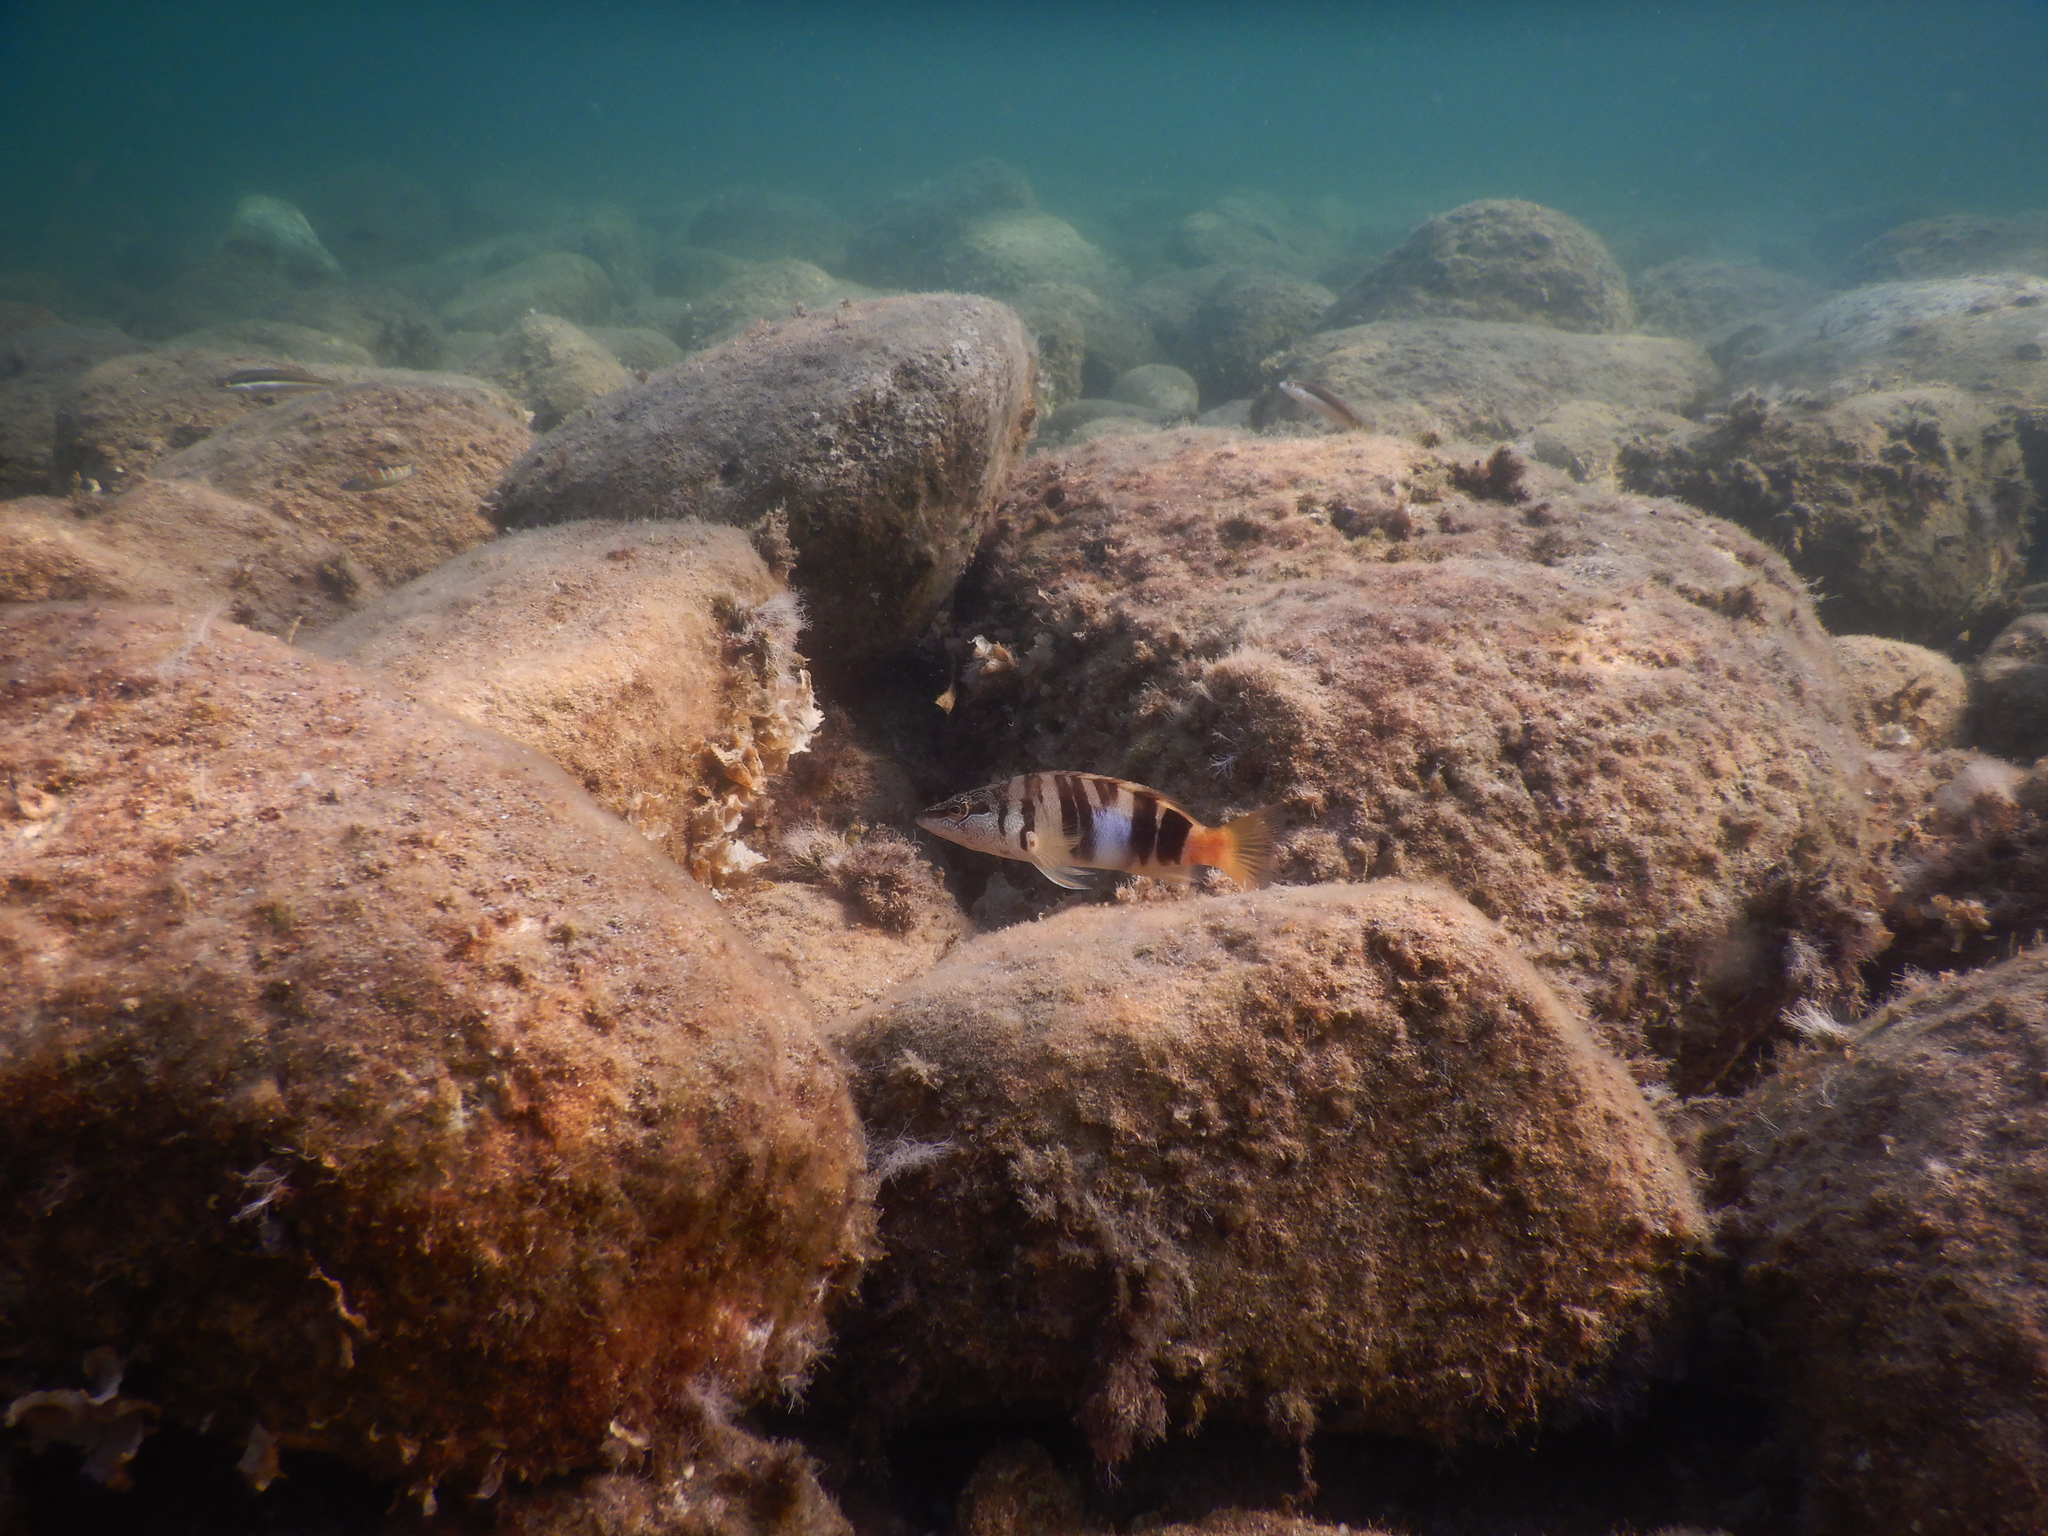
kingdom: Animalia
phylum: Chordata
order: Perciformes
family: Serranidae
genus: Serranus
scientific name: Serranus scriba
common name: Painted comber
